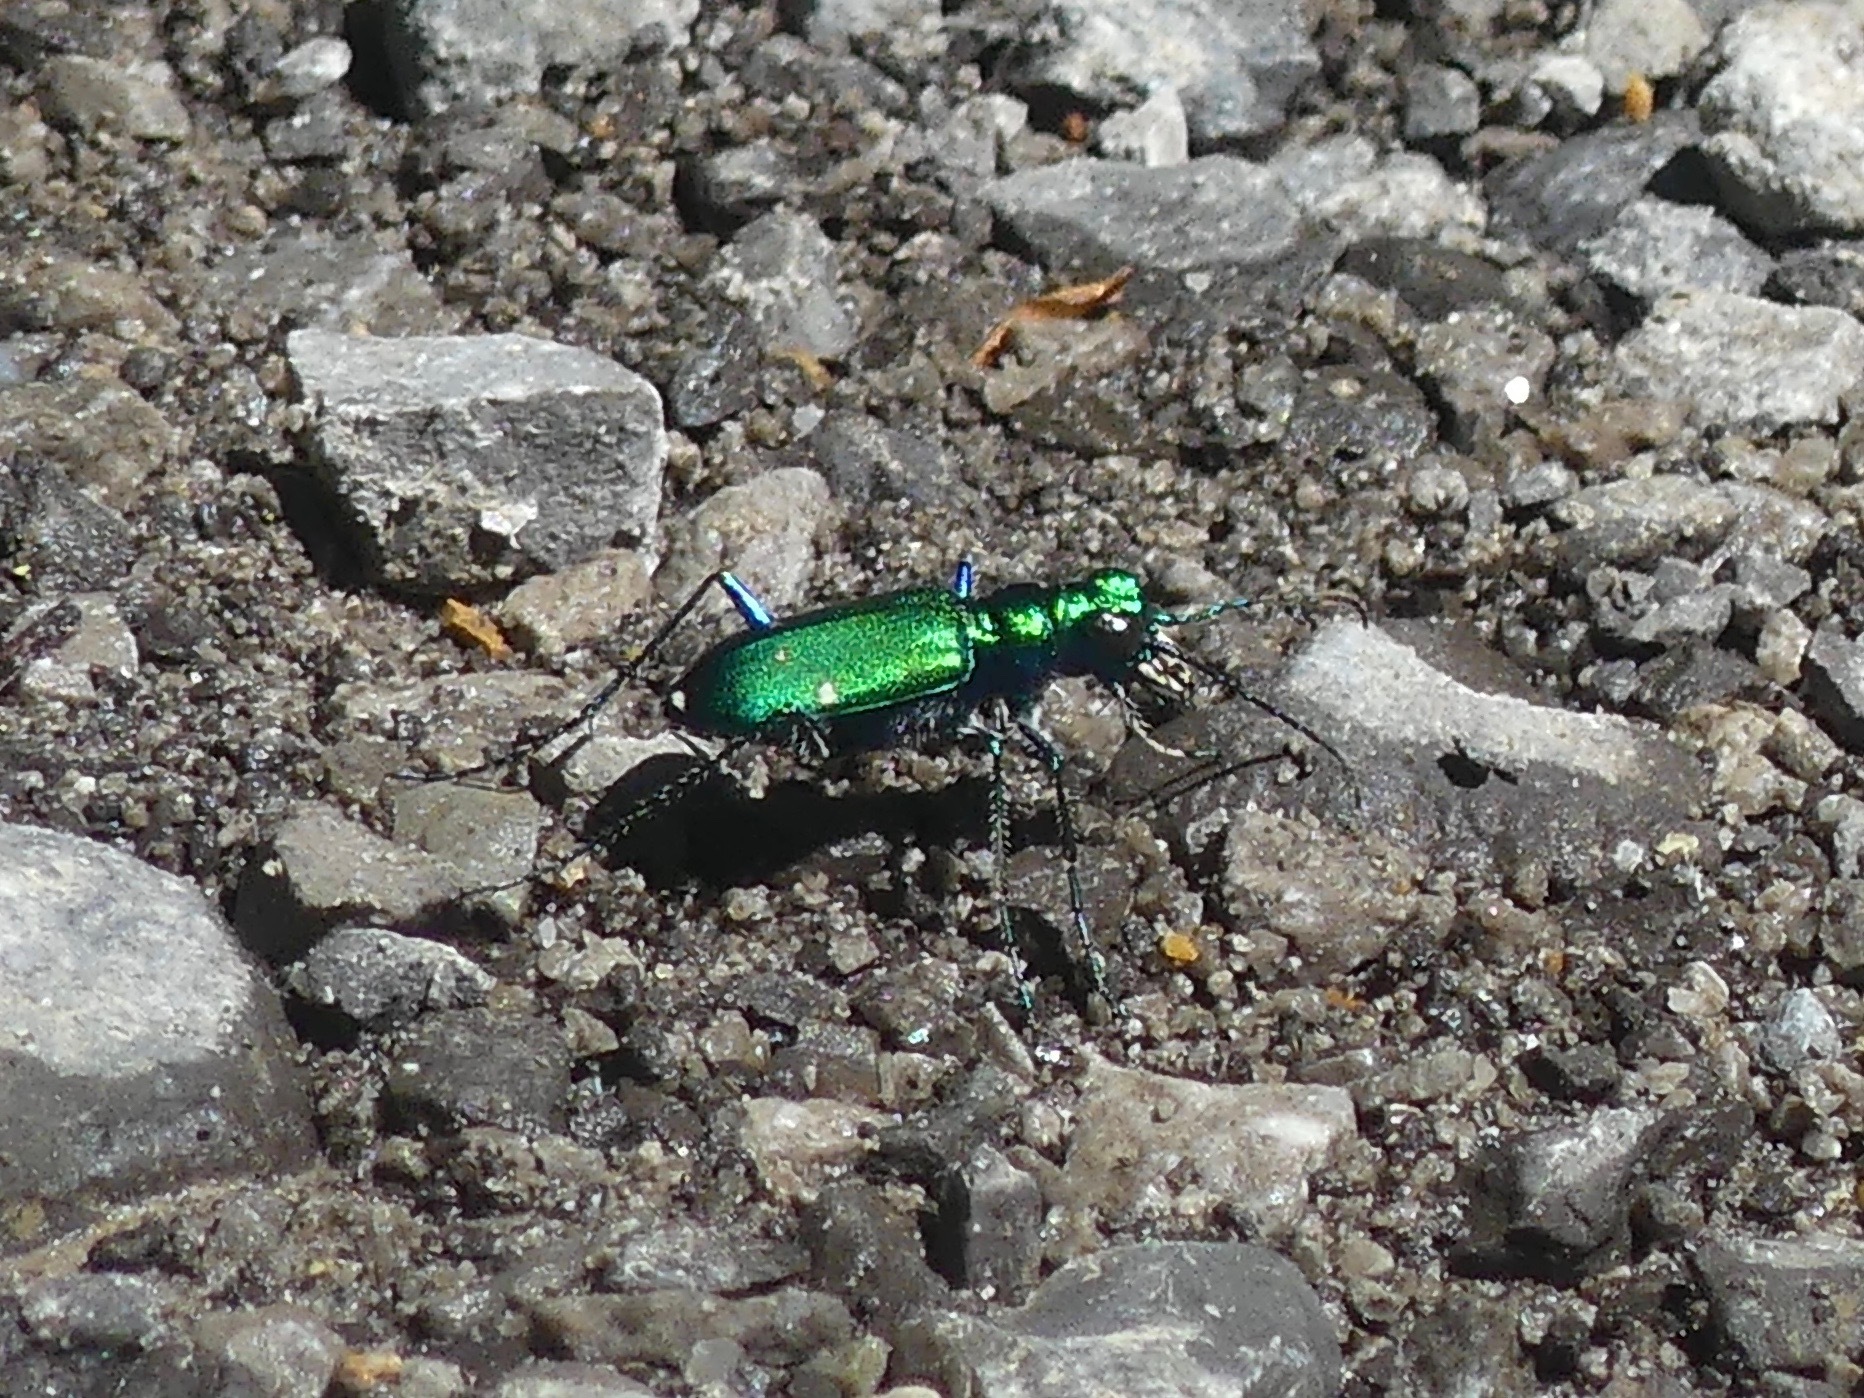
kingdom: Animalia
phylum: Arthropoda
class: Insecta
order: Coleoptera
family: Carabidae
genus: Cicindela
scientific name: Cicindela sexguttata
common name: Six-spotted tiger beetle
